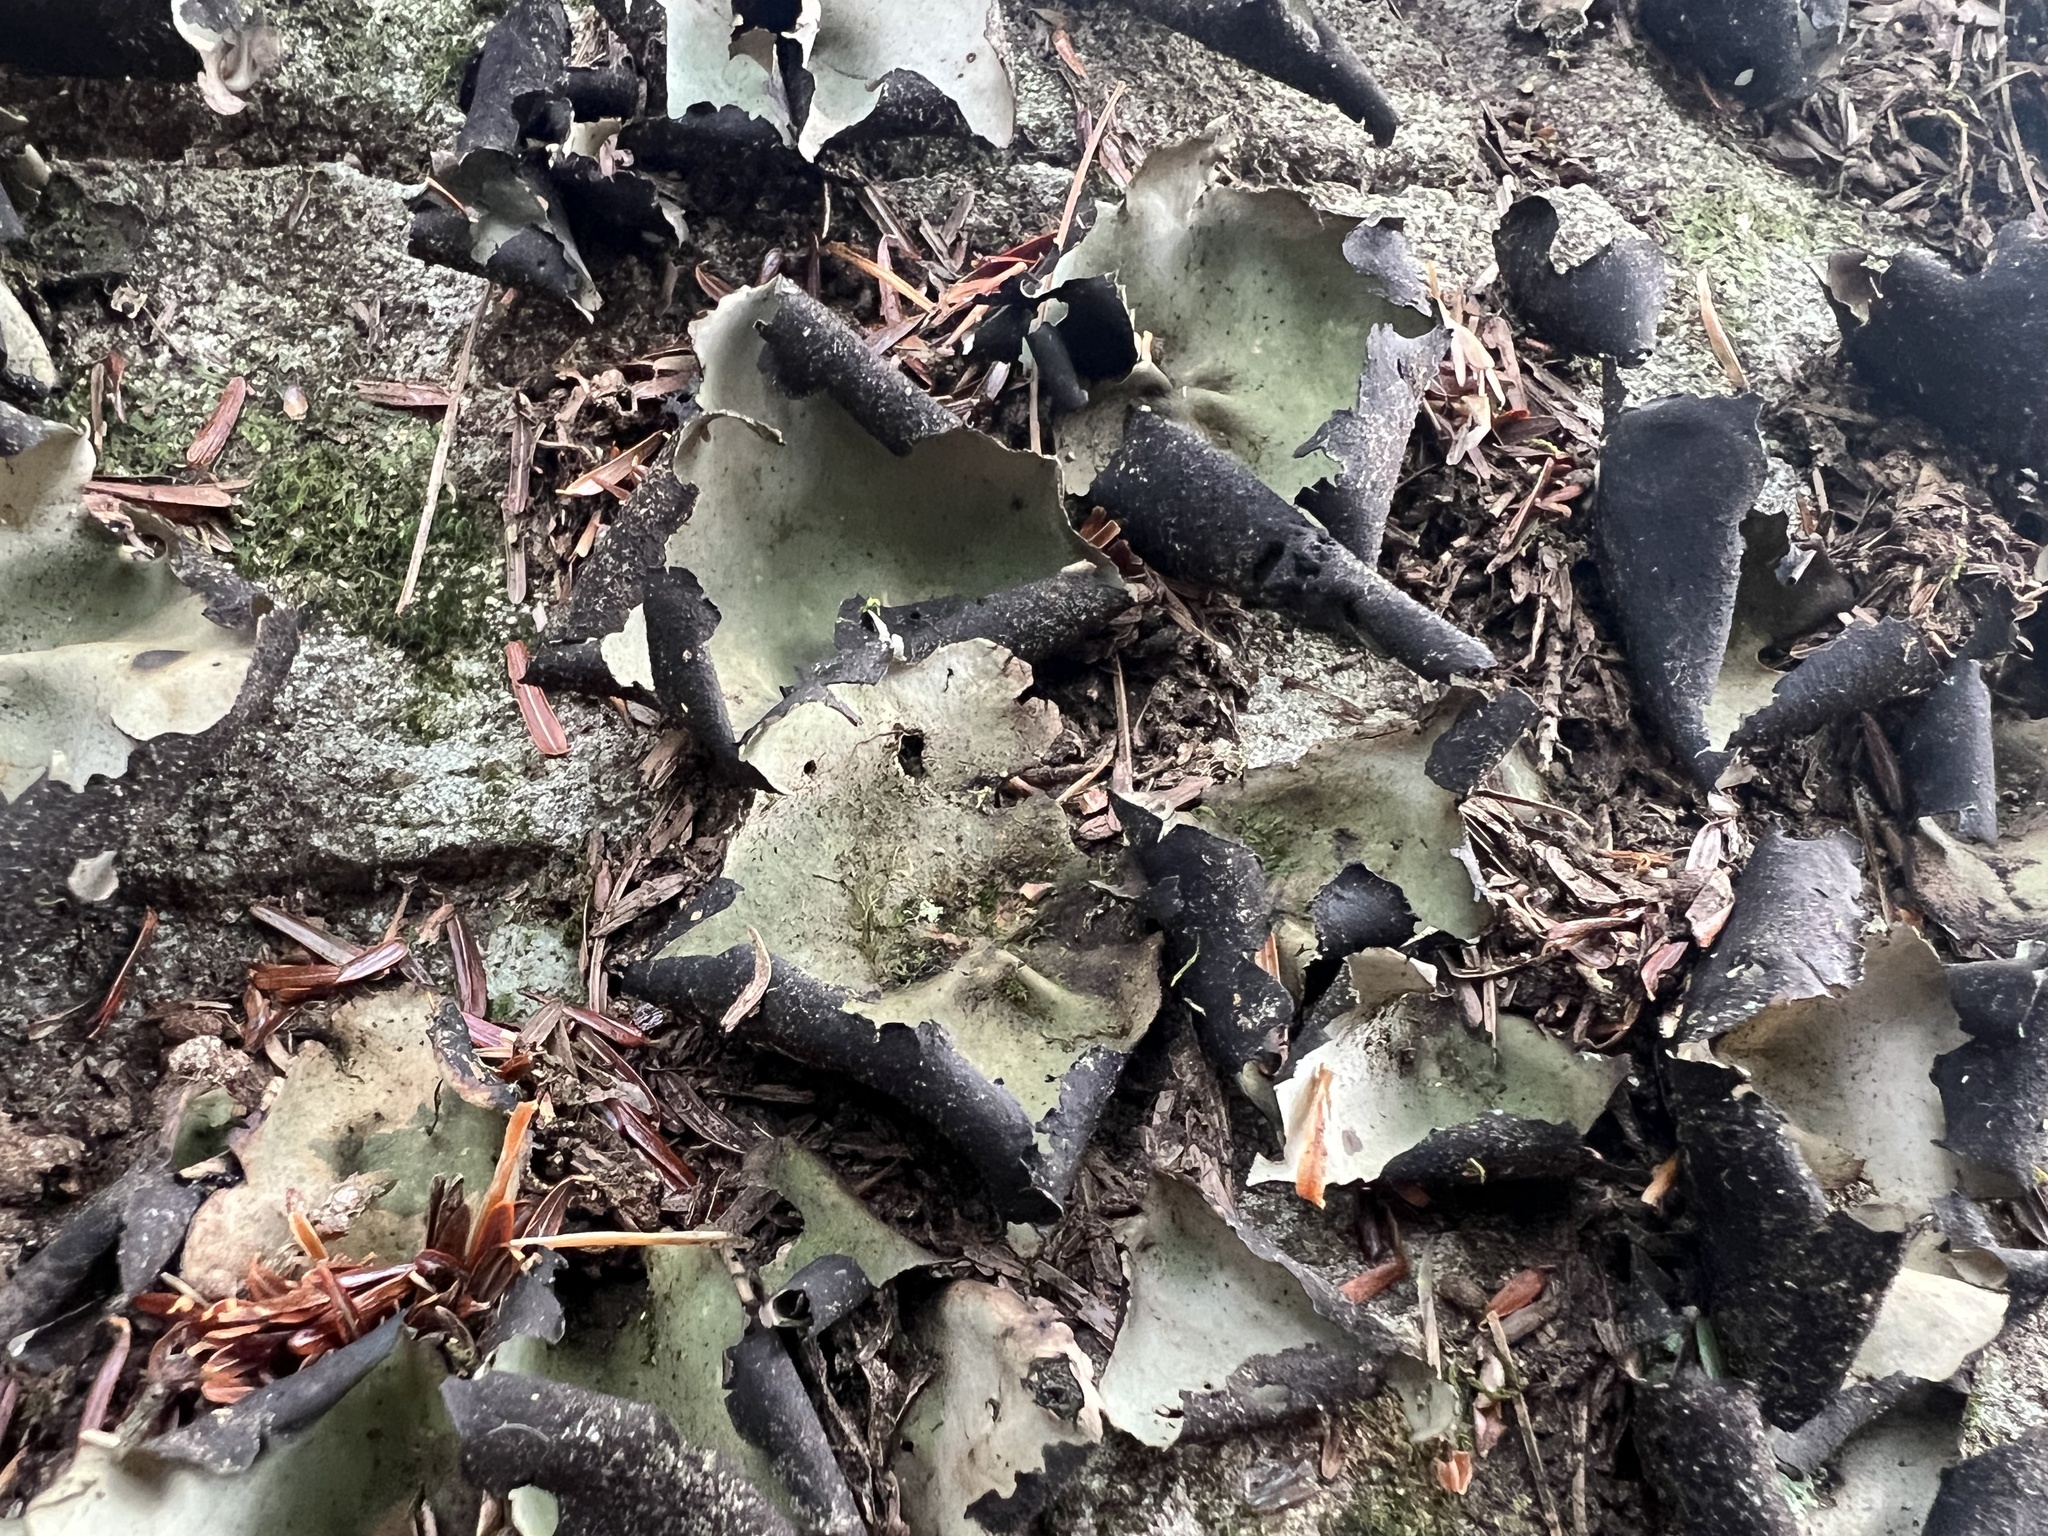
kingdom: Fungi
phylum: Ascomycota
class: Lecanoromycetes
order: Umbilicariales
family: Umbilicariaceae
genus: Umbilicaria
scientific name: Umbilicaria mammulata
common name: Smooth rock tripe
